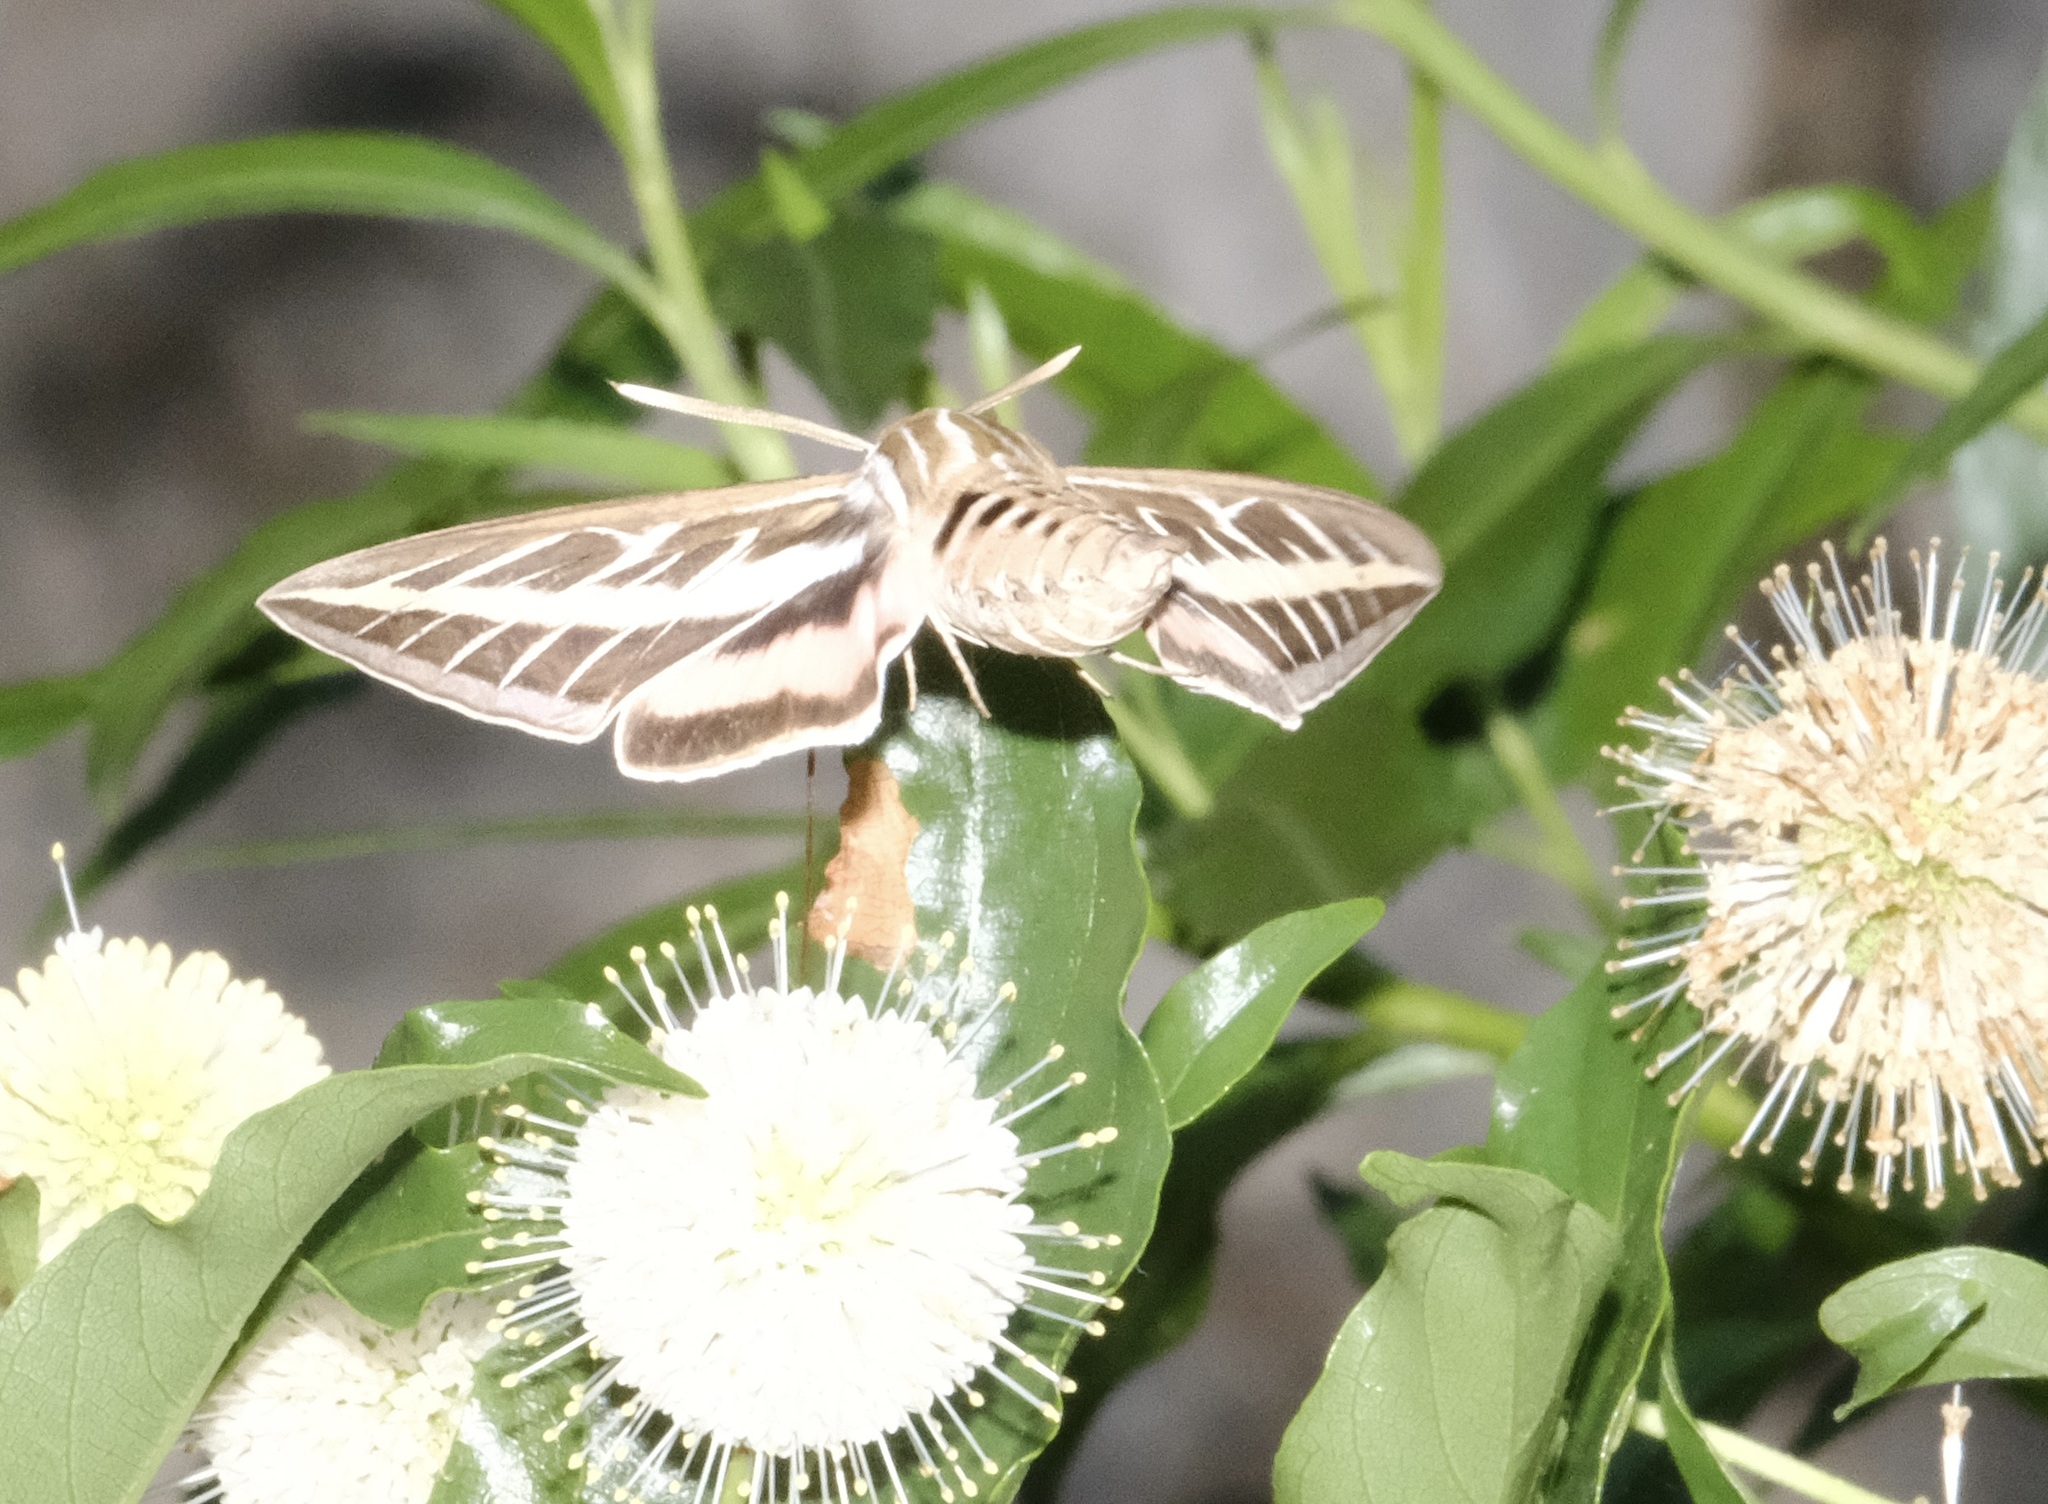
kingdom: Animalia
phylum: Arthropoda
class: Insecta
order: Lepidoptera
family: Sphingidae
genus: Hyles
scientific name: Hyles lineata
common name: White-lined sphinx
